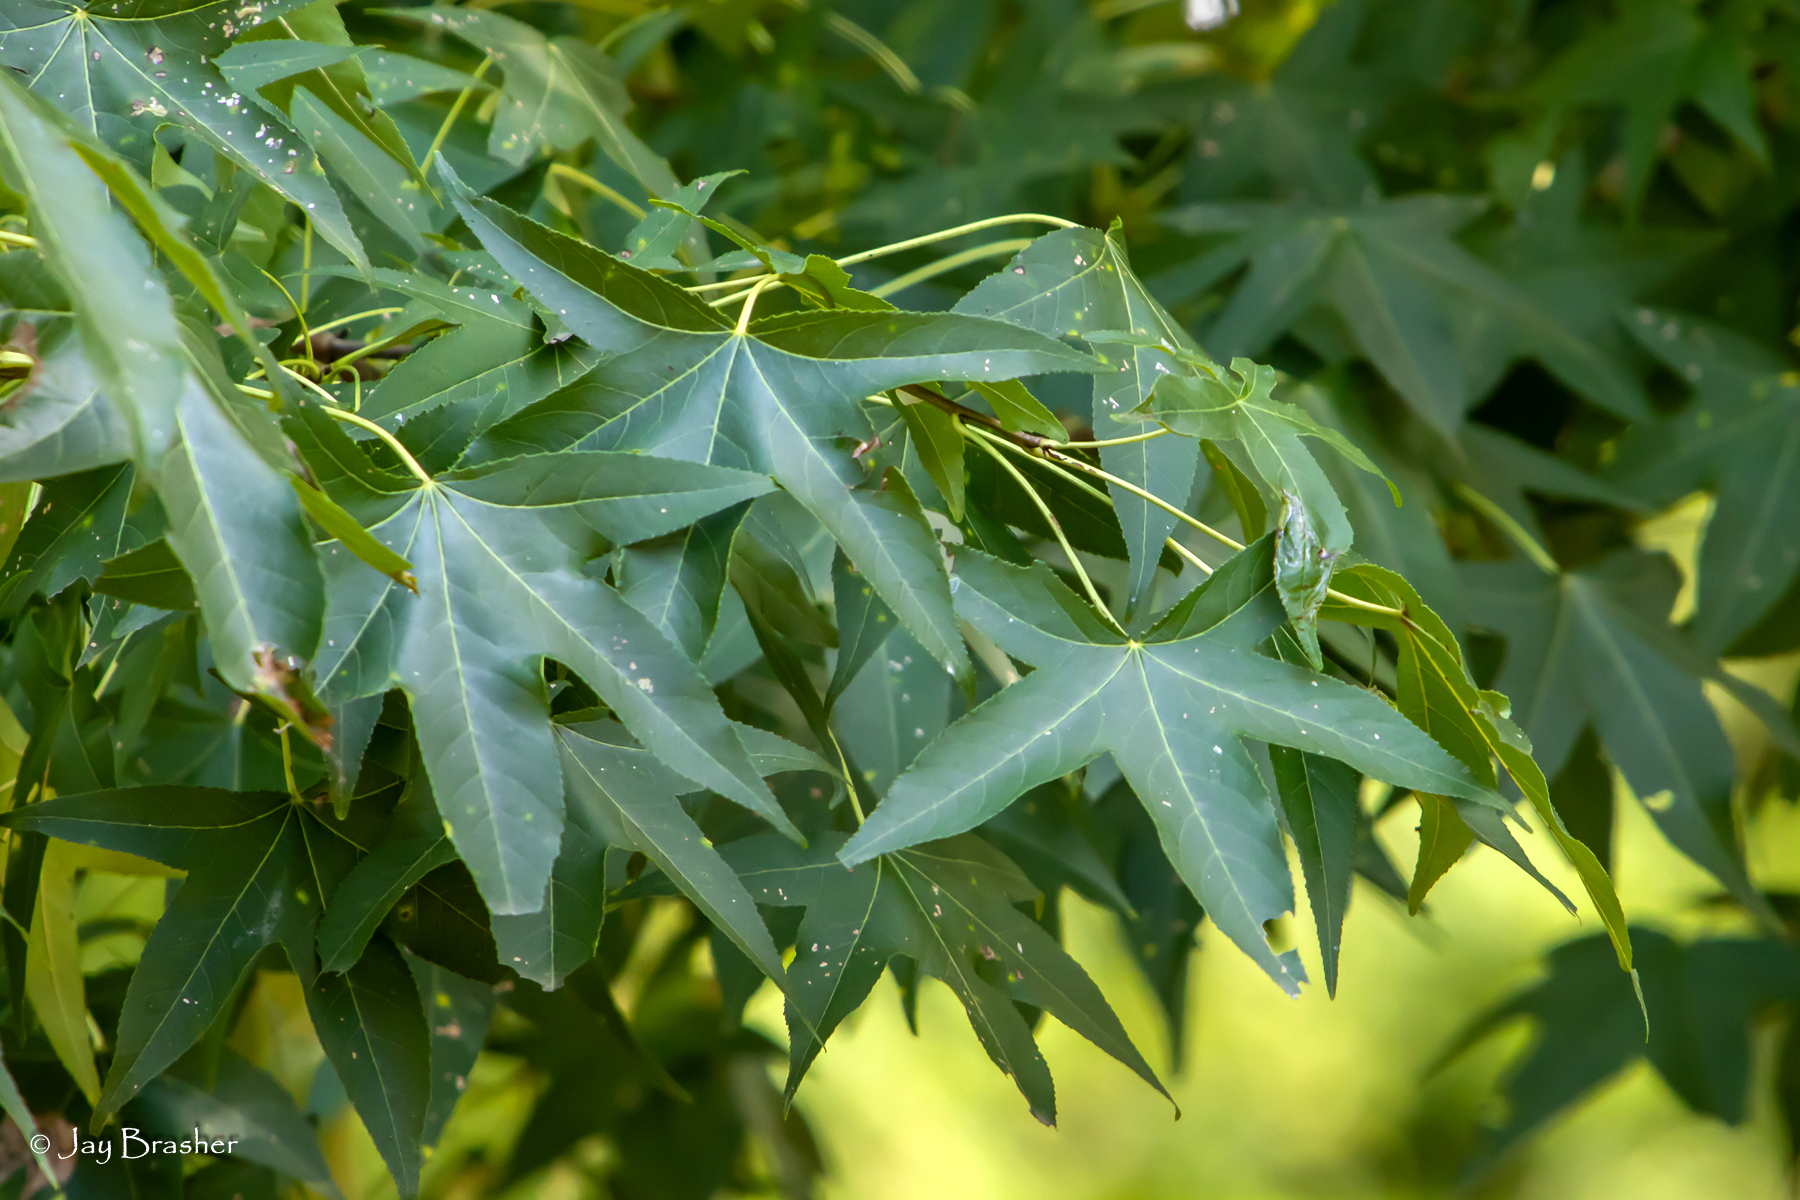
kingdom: Plantae
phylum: Tracheophyta
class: Magnoliopsida
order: Saxifragales
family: Altingiaceae
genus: Liquidambar
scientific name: Liquidambar styraciflua
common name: Sweet gum
